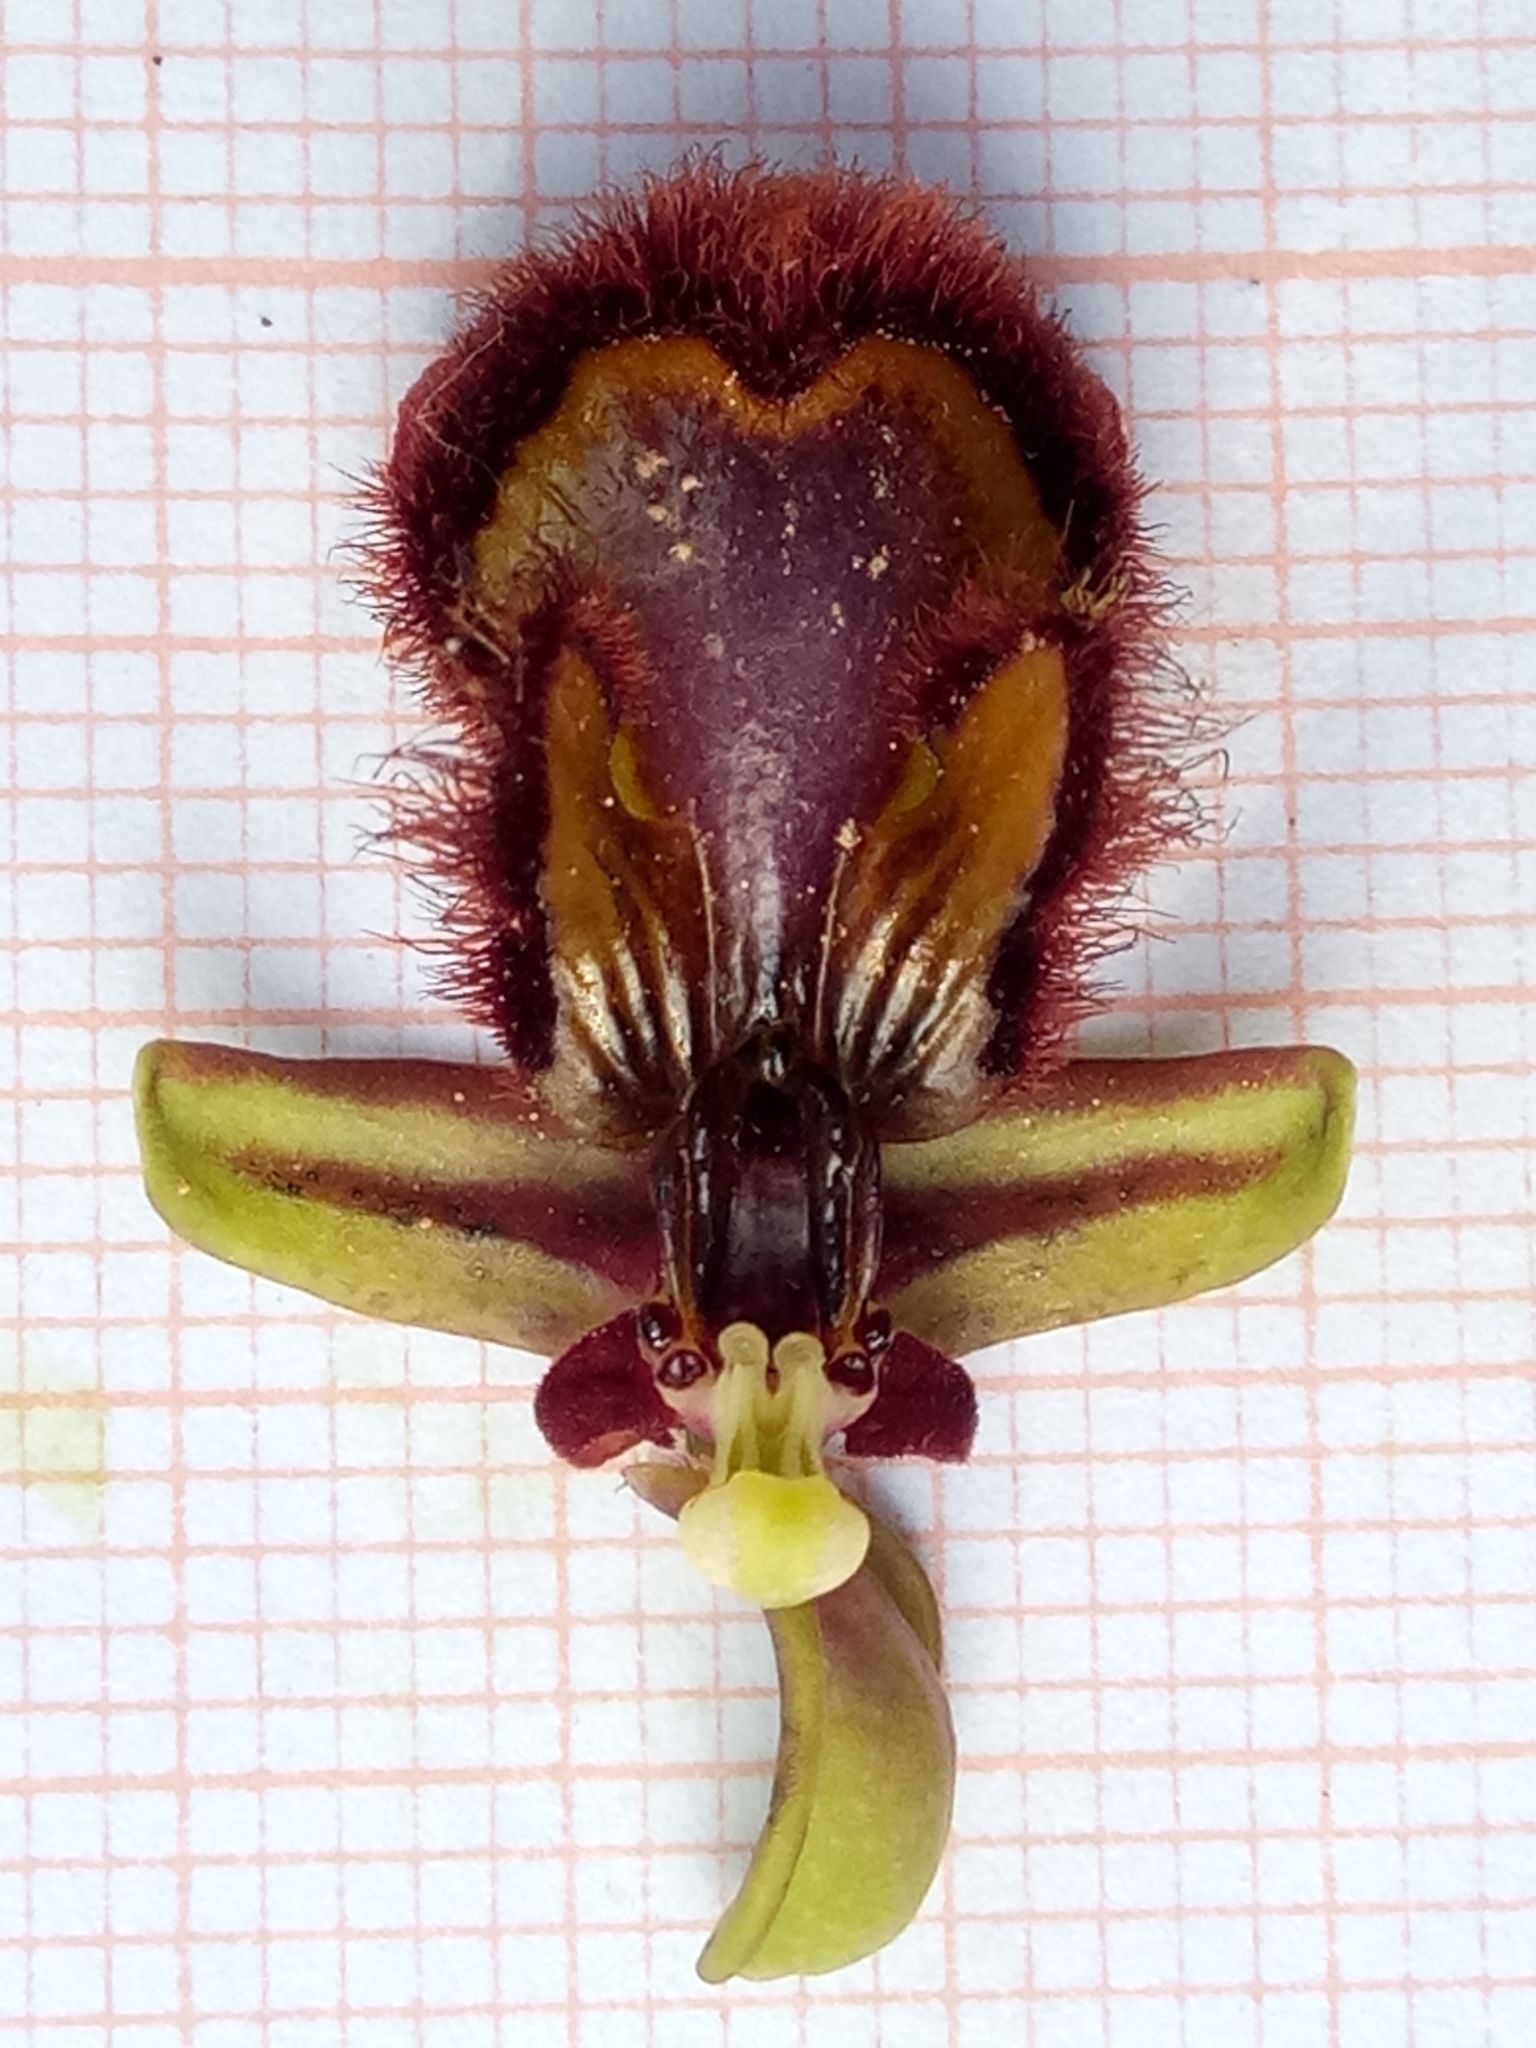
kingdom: Plantae
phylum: Tracheophyta
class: Liliopsida
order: Asparagales
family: Orchidaceae
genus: Ophrys
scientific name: Ophrys speculum
